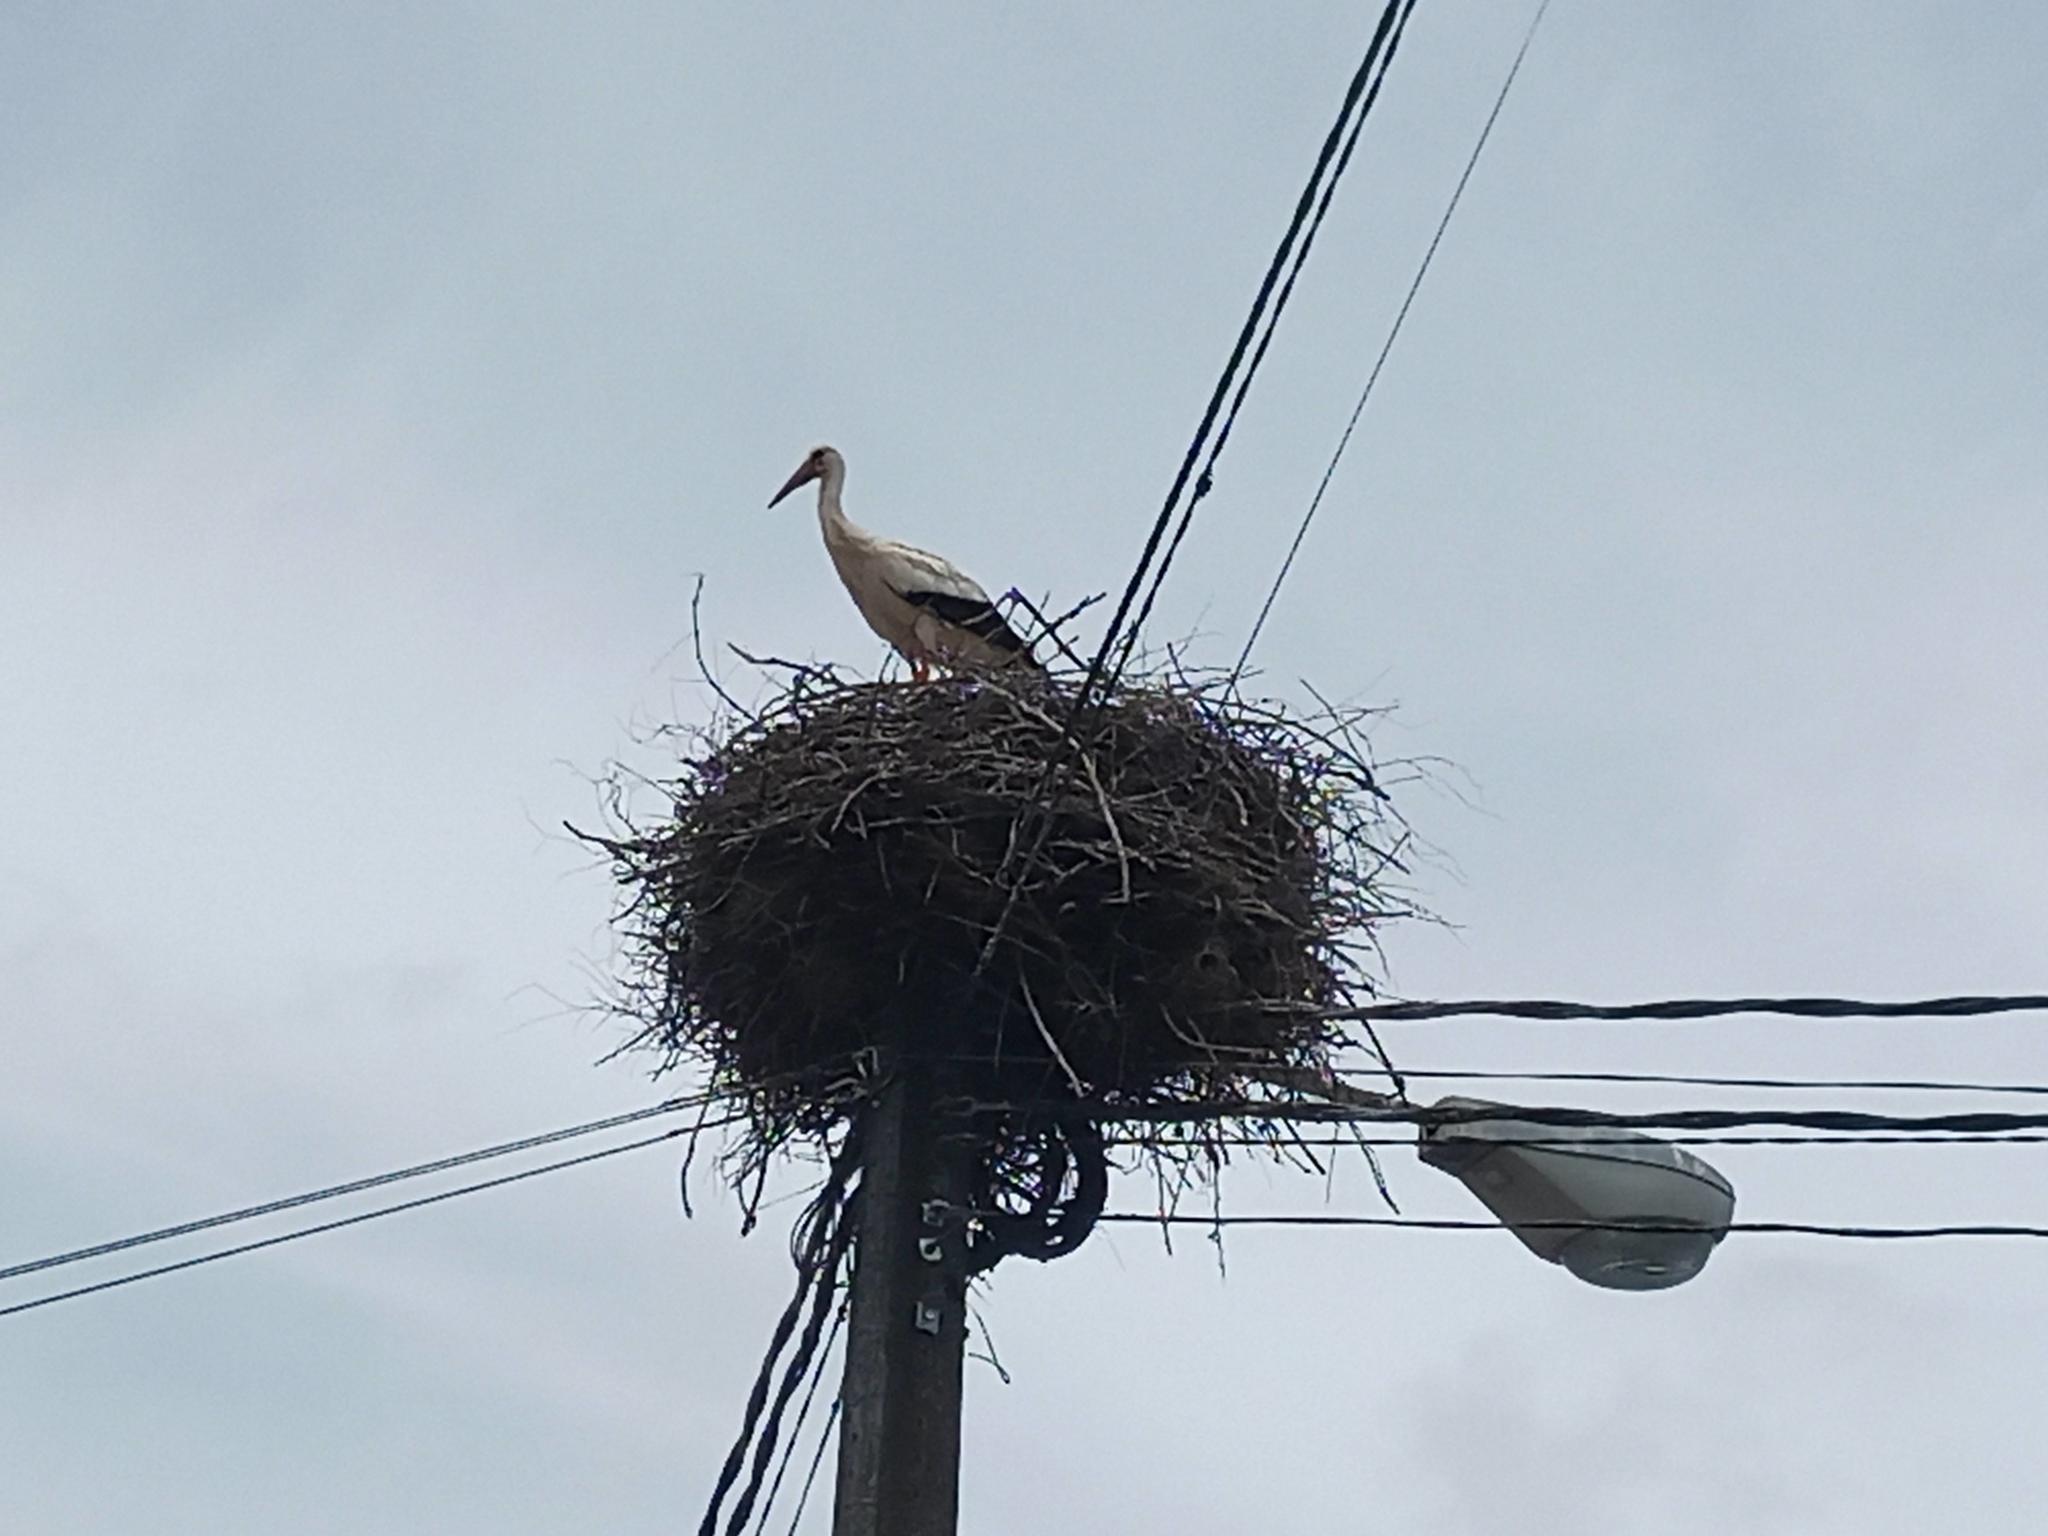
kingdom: Animalia
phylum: Chordata
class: Aves
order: Ciconiiformes
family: Ciconiidae
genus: Ciconia
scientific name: Ciconia ciconia
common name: White stork
